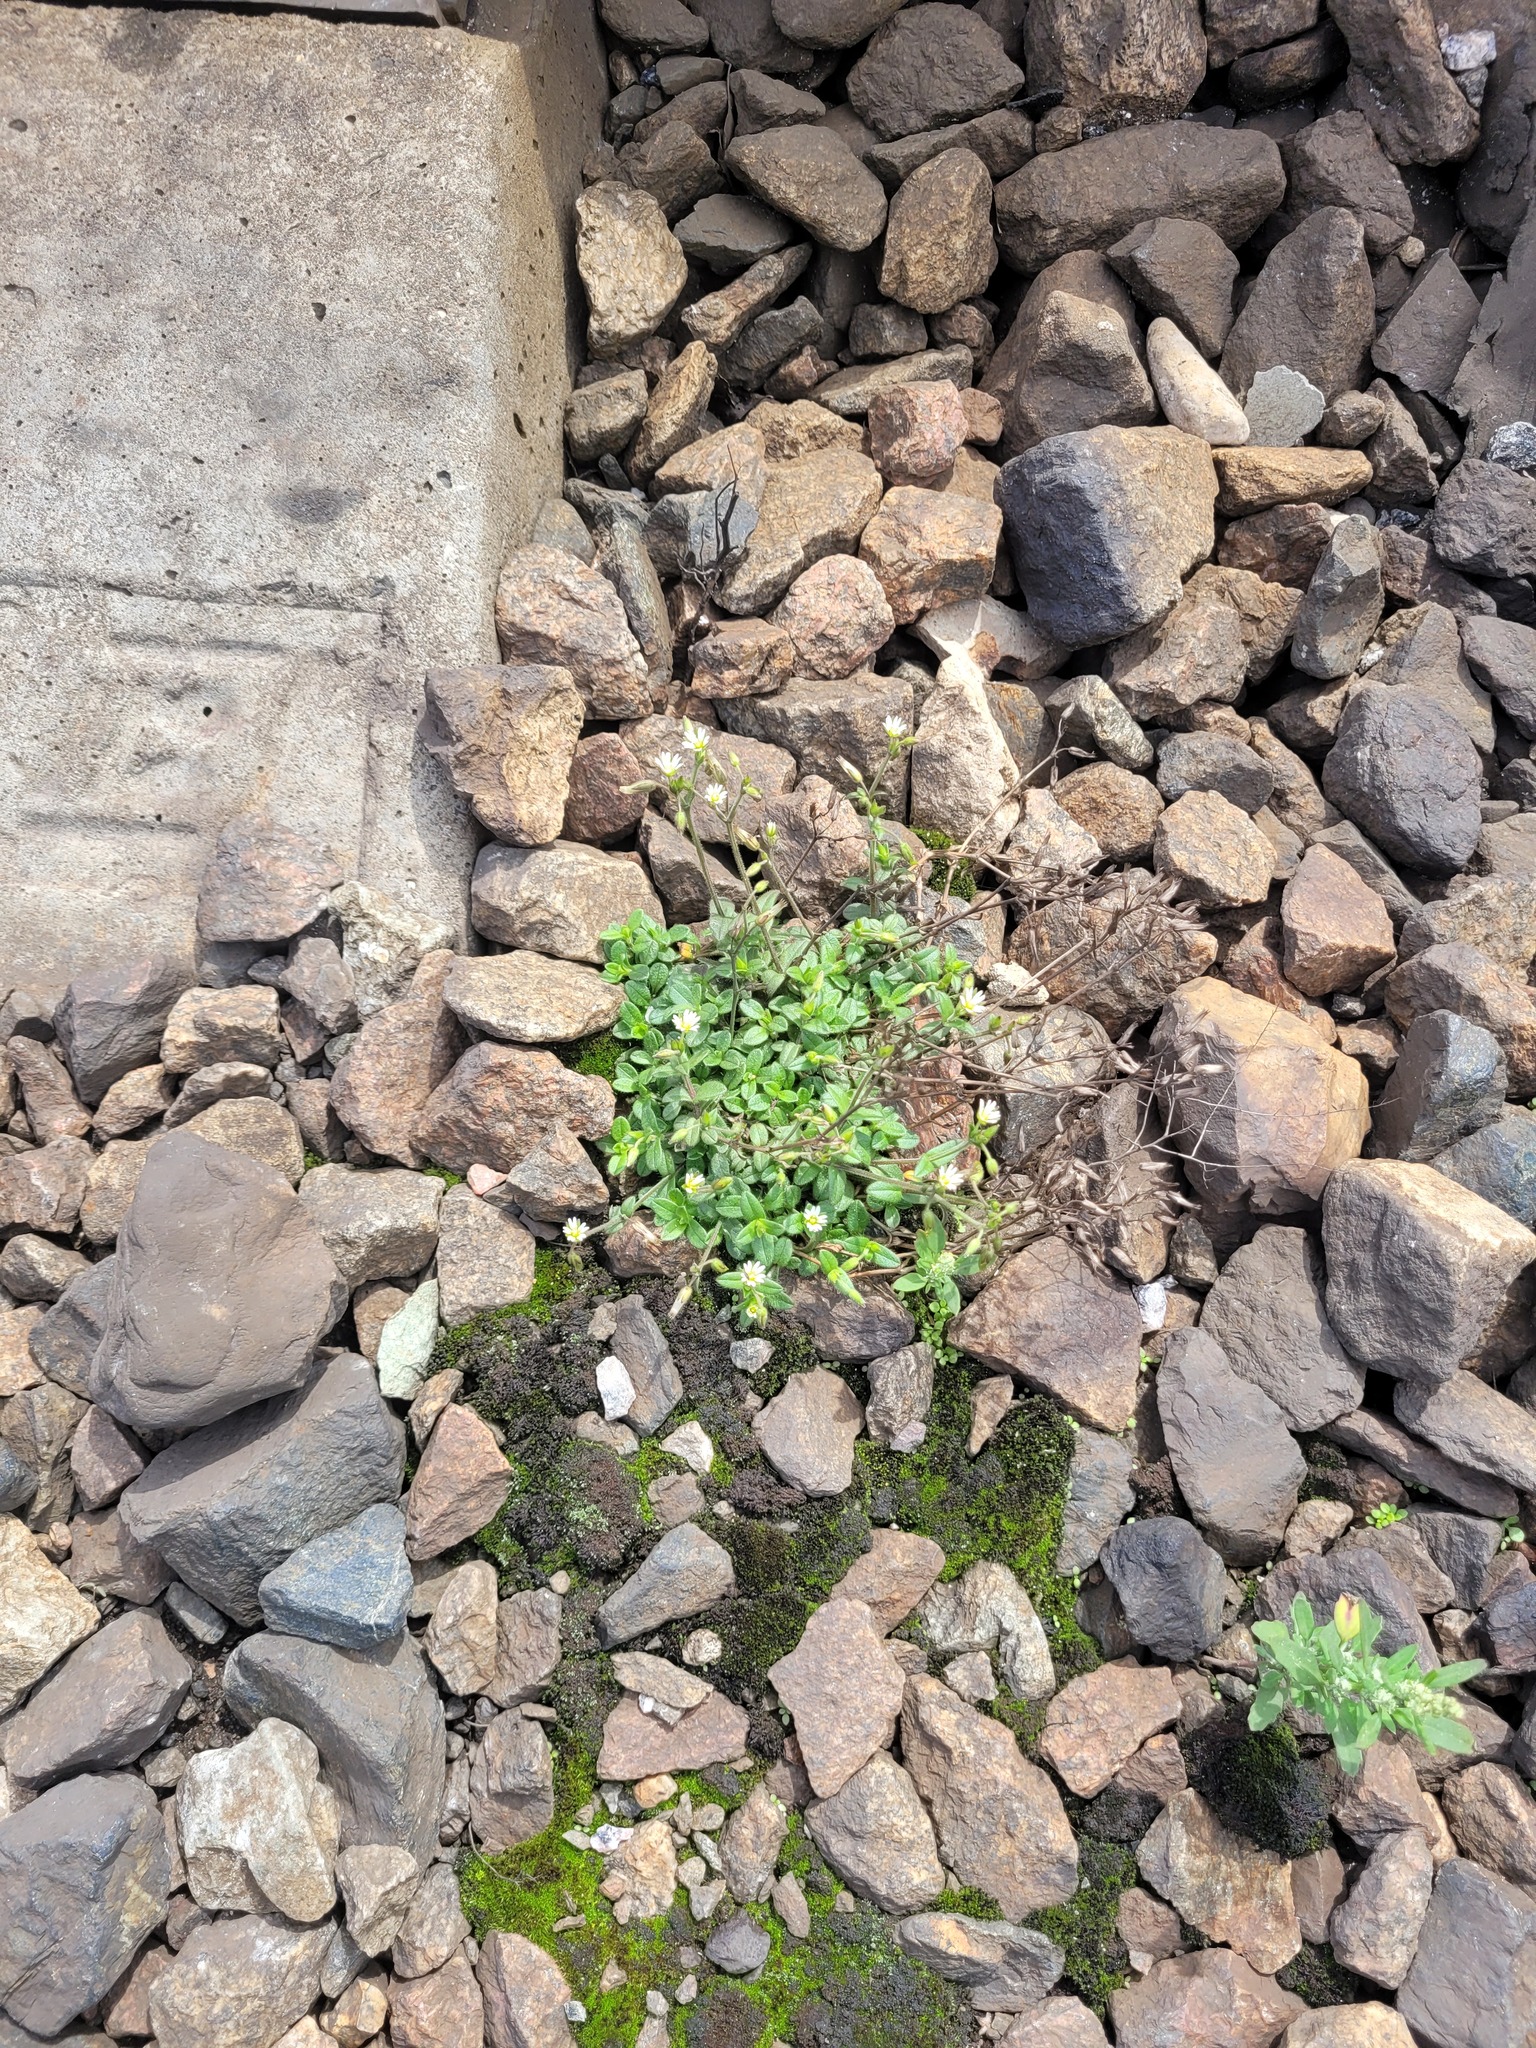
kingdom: Plantae
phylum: Tracheophyta
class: Magnoliopsida
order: Caryophyllales
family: Caryophyllaceae
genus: Cerastium
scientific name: Cerastium holosteoides
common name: Big chickweed
